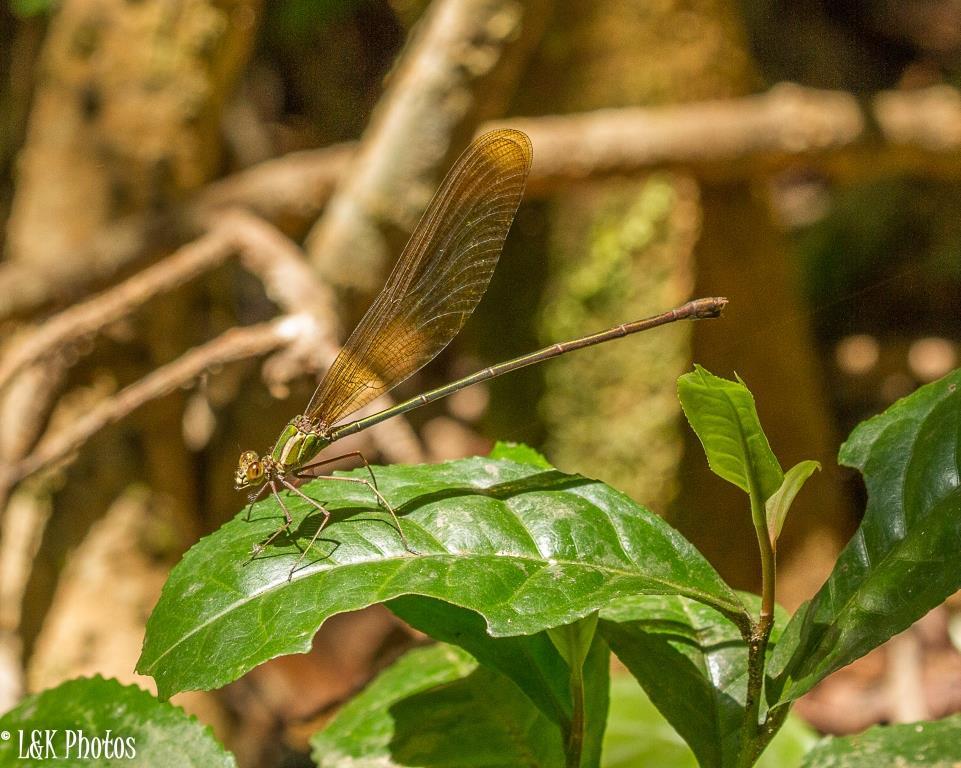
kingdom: Animalia
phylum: Arthropoda
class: Insecta
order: Odonata
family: Calopterygidae
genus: Phaon
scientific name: Phaon rasoherinae
